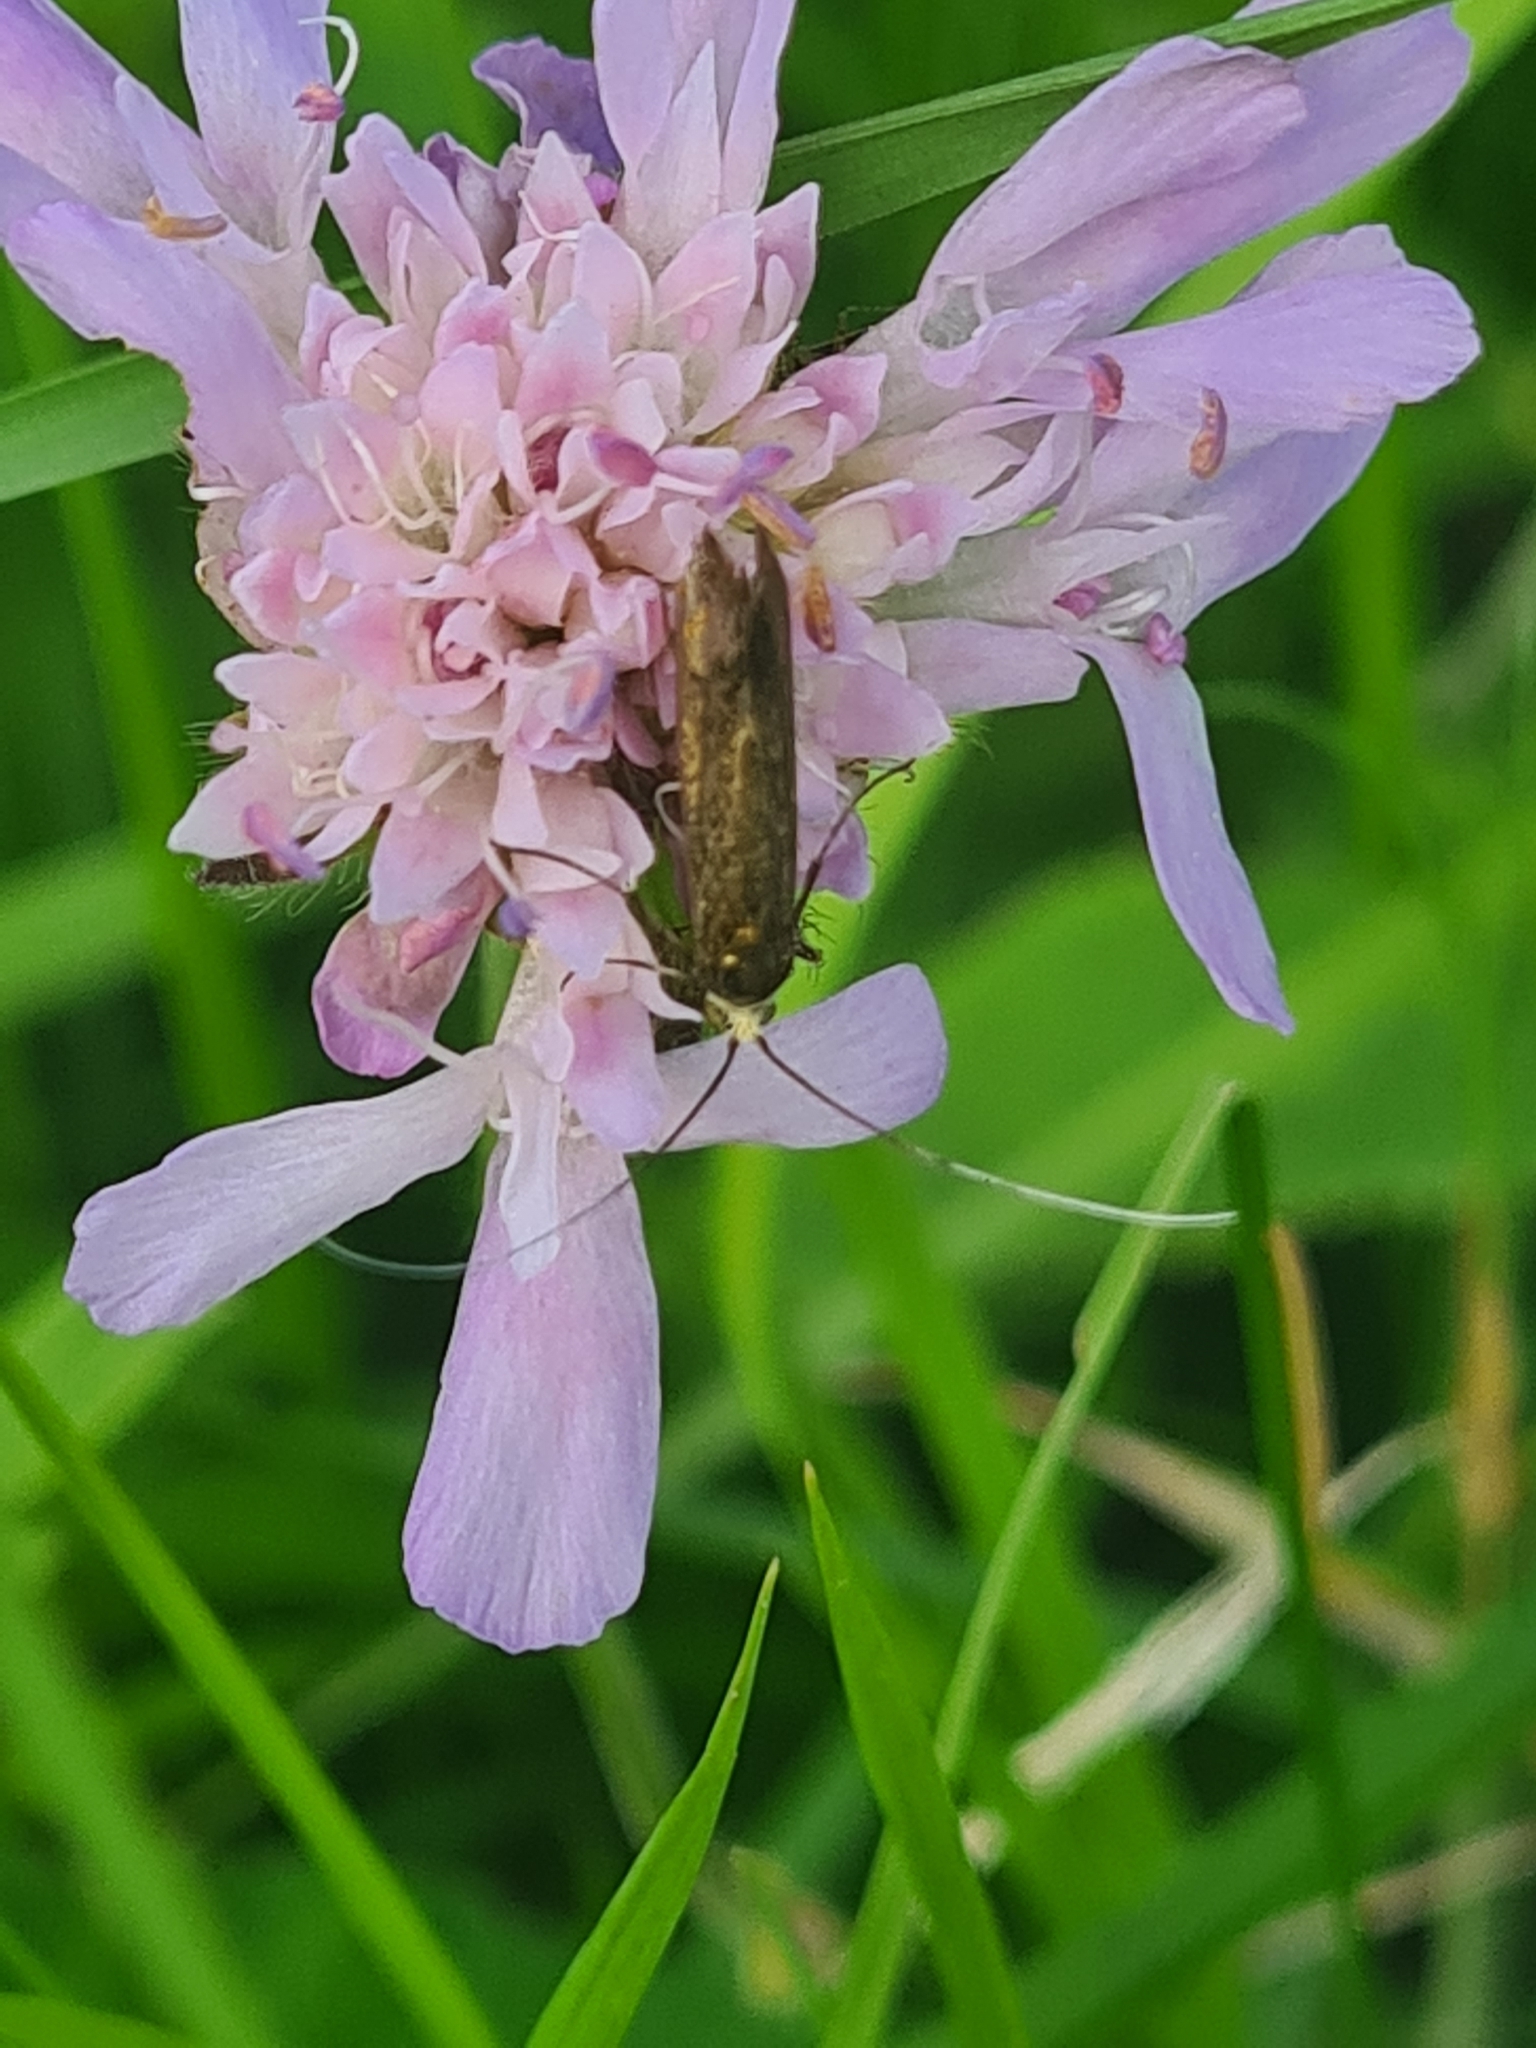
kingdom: Animalia
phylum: Arthropoda
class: Insecta
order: Lepidoptera
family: Adelidae
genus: Nemophora
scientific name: Nemophora metallica
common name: Brassy long-horn
